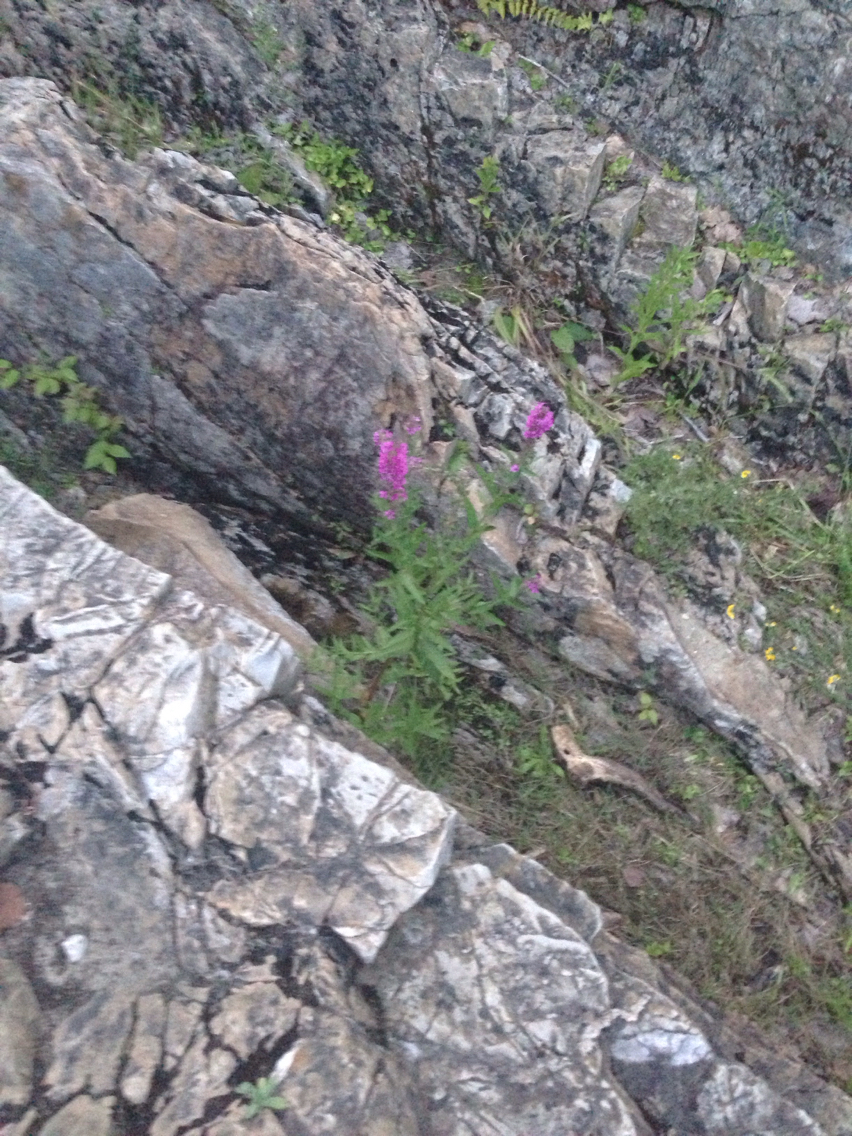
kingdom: Plantae
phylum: Tracheophyta
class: Magnoliopsida
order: Myrtales
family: Lythraceae
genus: Lythrum
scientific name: Lythrum salicaria
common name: Purple loosestrife
